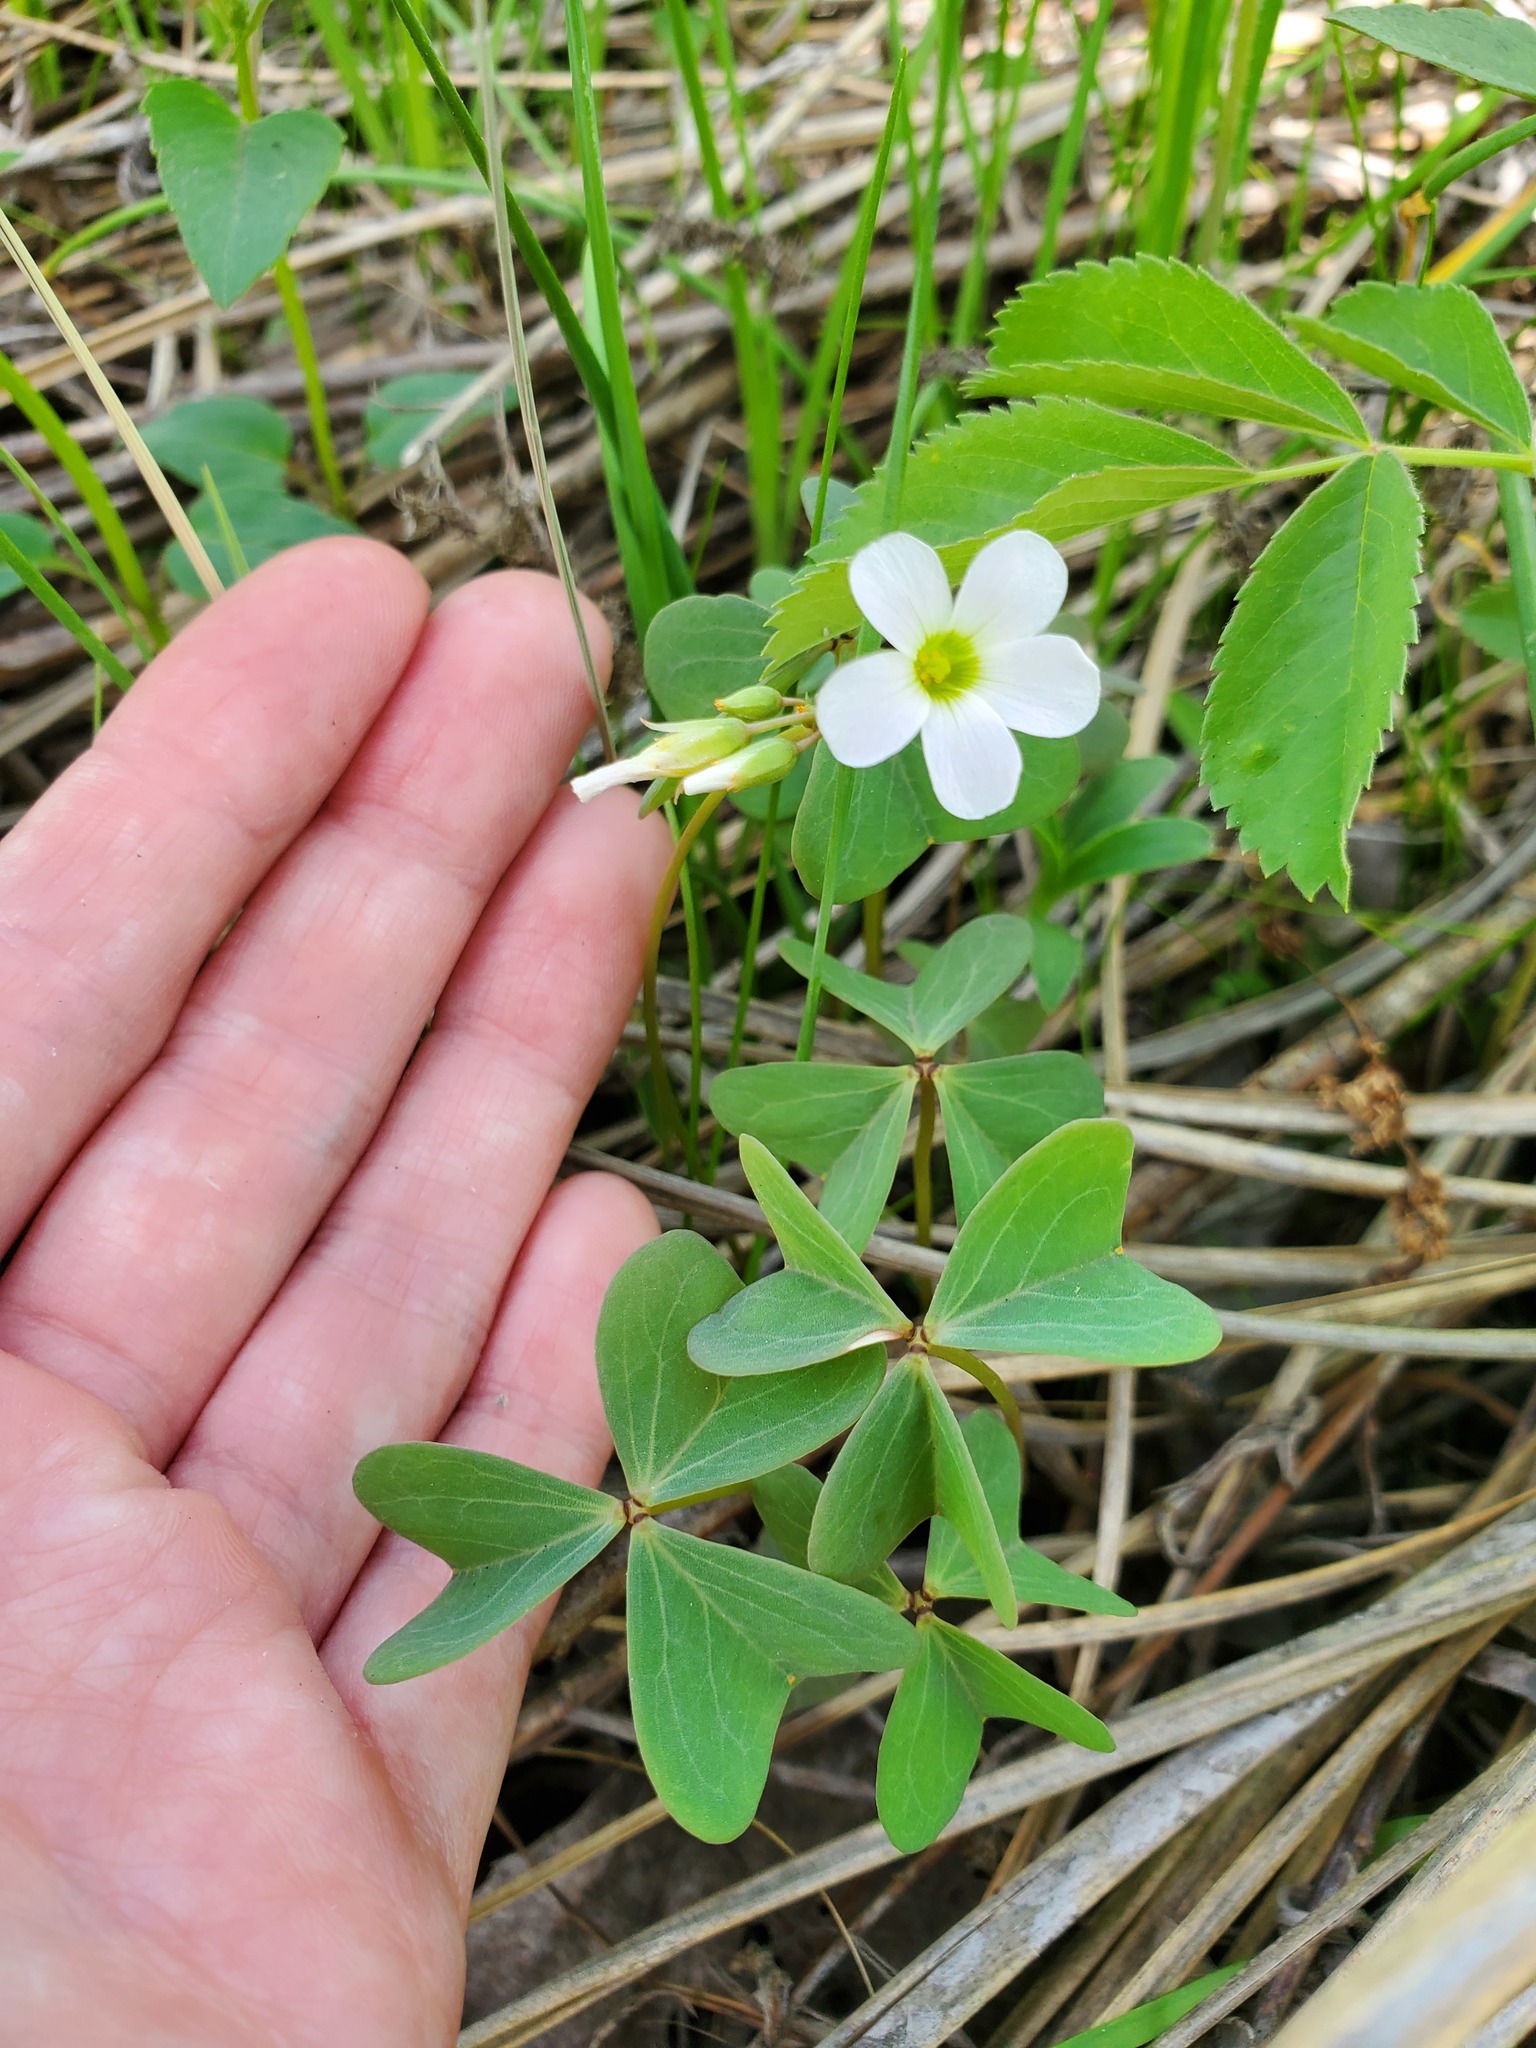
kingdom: Plantae
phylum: Tracheophyta
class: Magnoliopsida
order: Oxalidales
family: Oxalidaceae
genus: Oxalis
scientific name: Oxalis violacea
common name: Violet wood-sorrel
